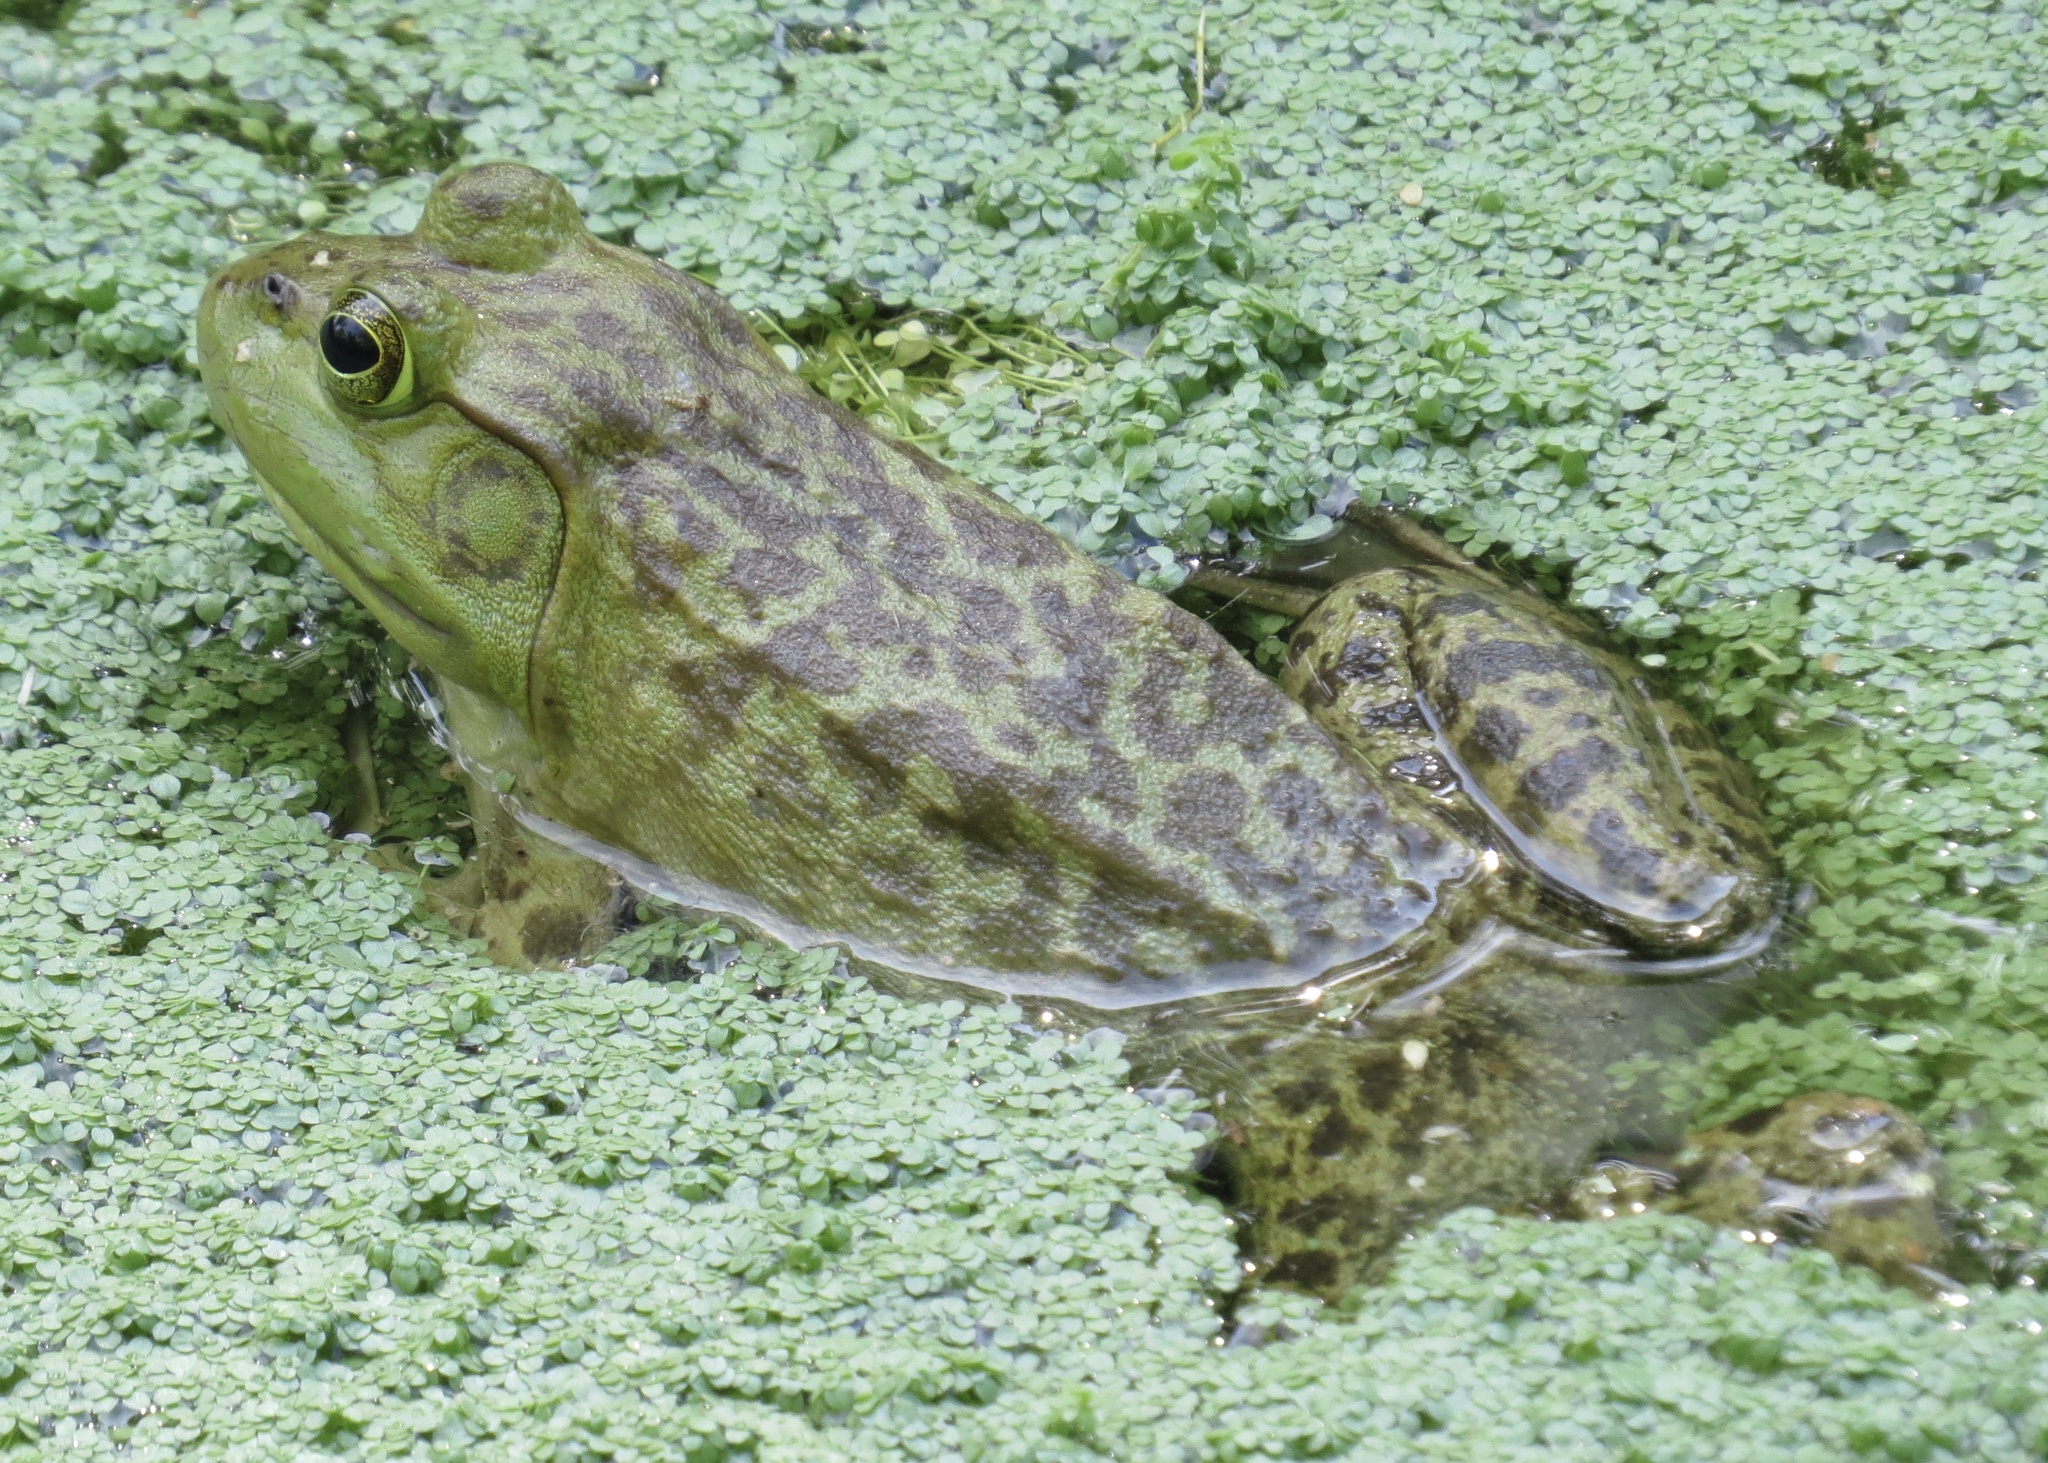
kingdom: Animalia
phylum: Chordata
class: Amphibia
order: Anura
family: Ranidae
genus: Lithobates
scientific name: Lithobates catesbeianus
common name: American bullfrog
